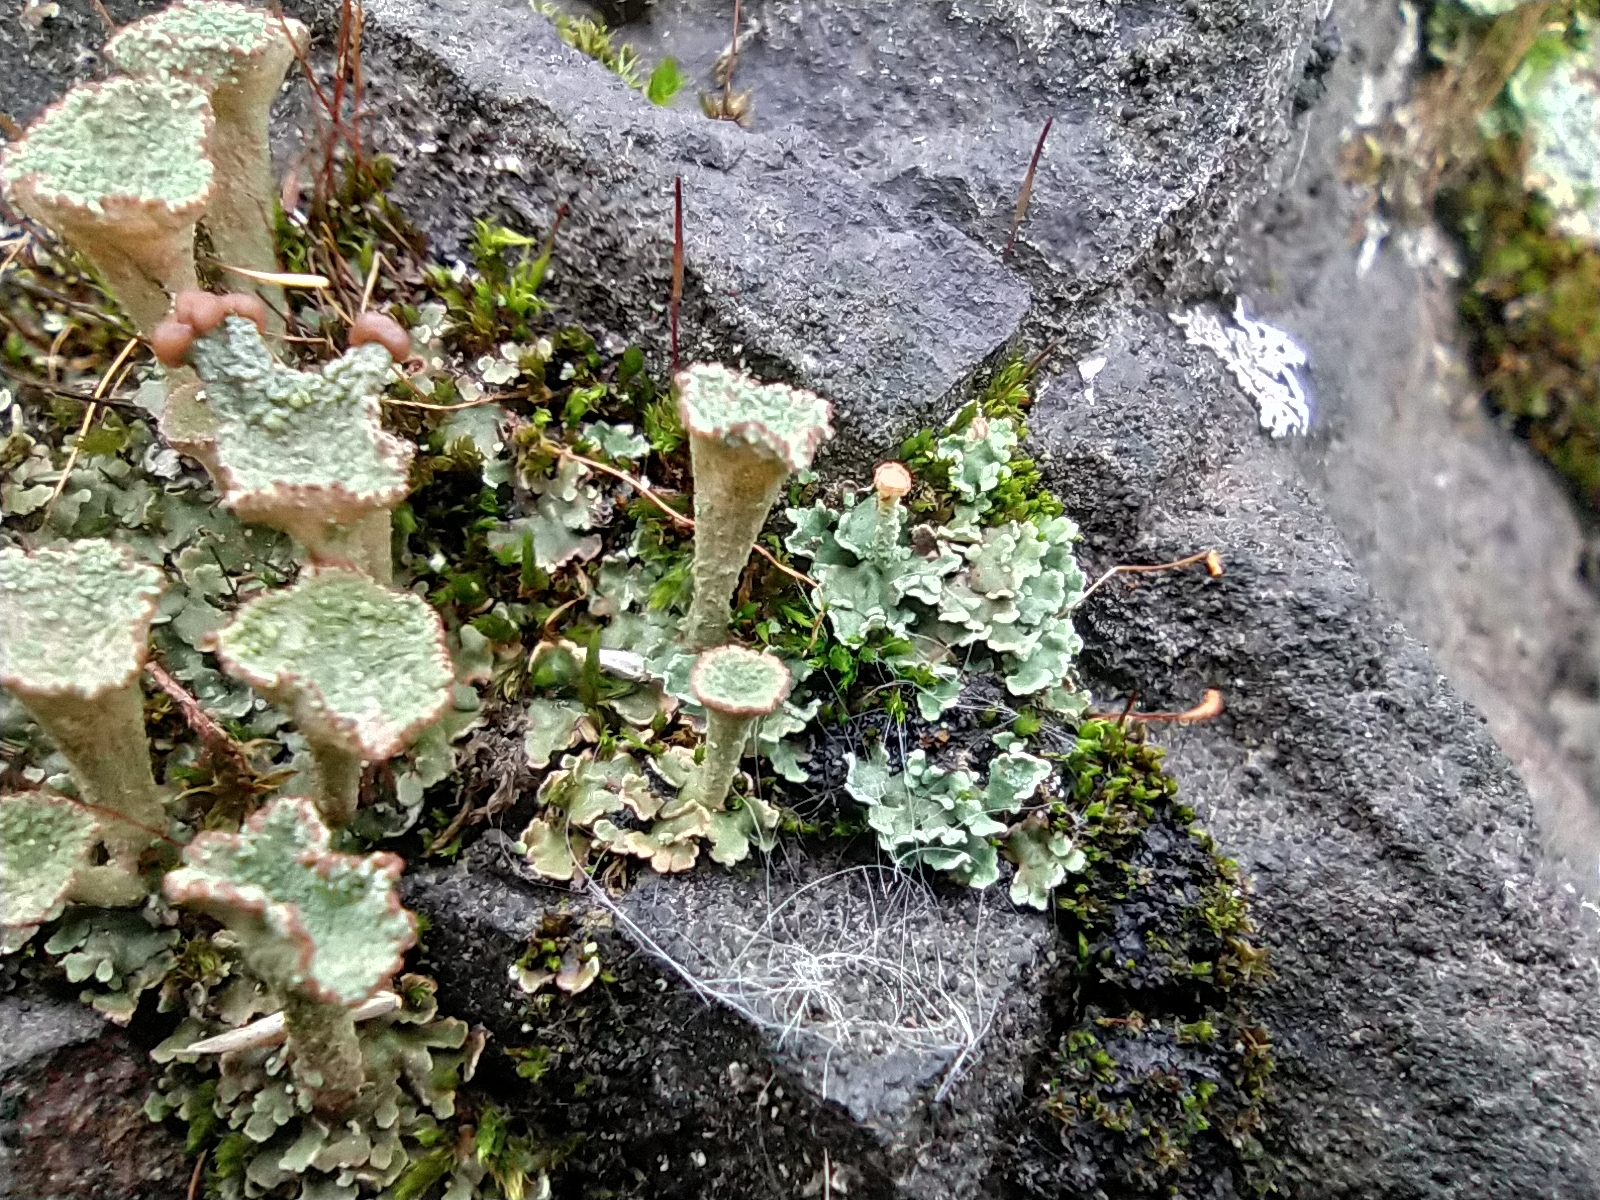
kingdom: Fungi
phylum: Ascomycota
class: Lecanoromycetes
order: Lecanorales
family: Cladoniaceae
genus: Cladonia
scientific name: Cladonia pyxidata
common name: Pebbled pixie cup
